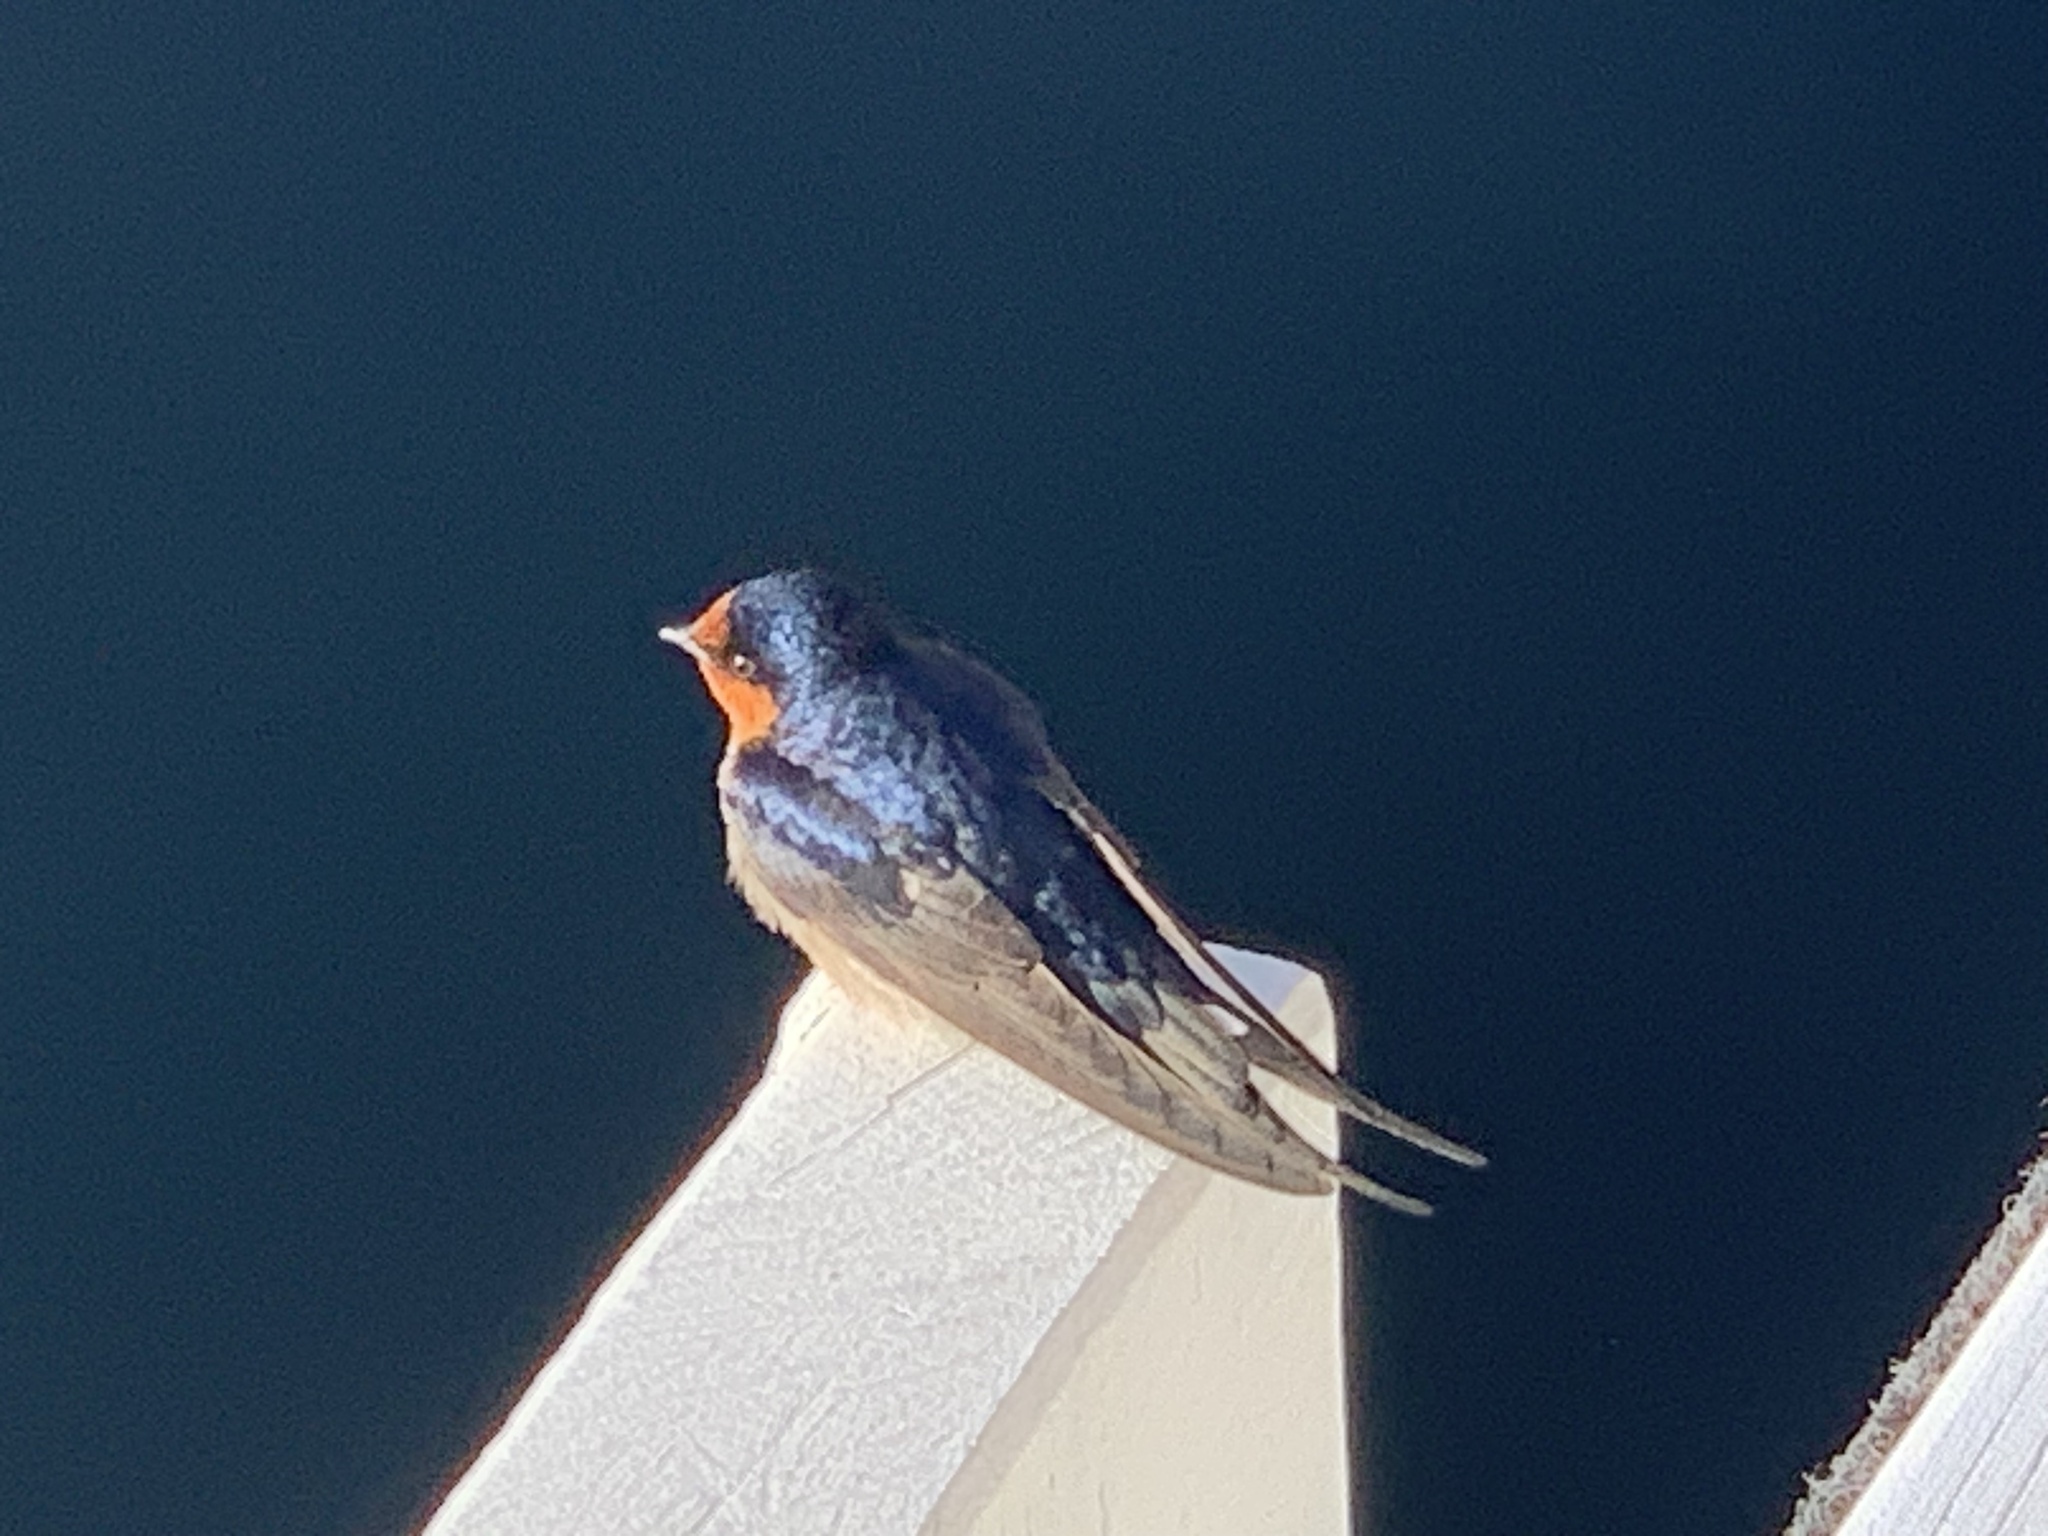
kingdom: Animalia
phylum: Chordata
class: Aves
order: Passeriformes
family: Hirundinidae
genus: Hirundo
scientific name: Hirundo neoxena
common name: Welcome swallow
